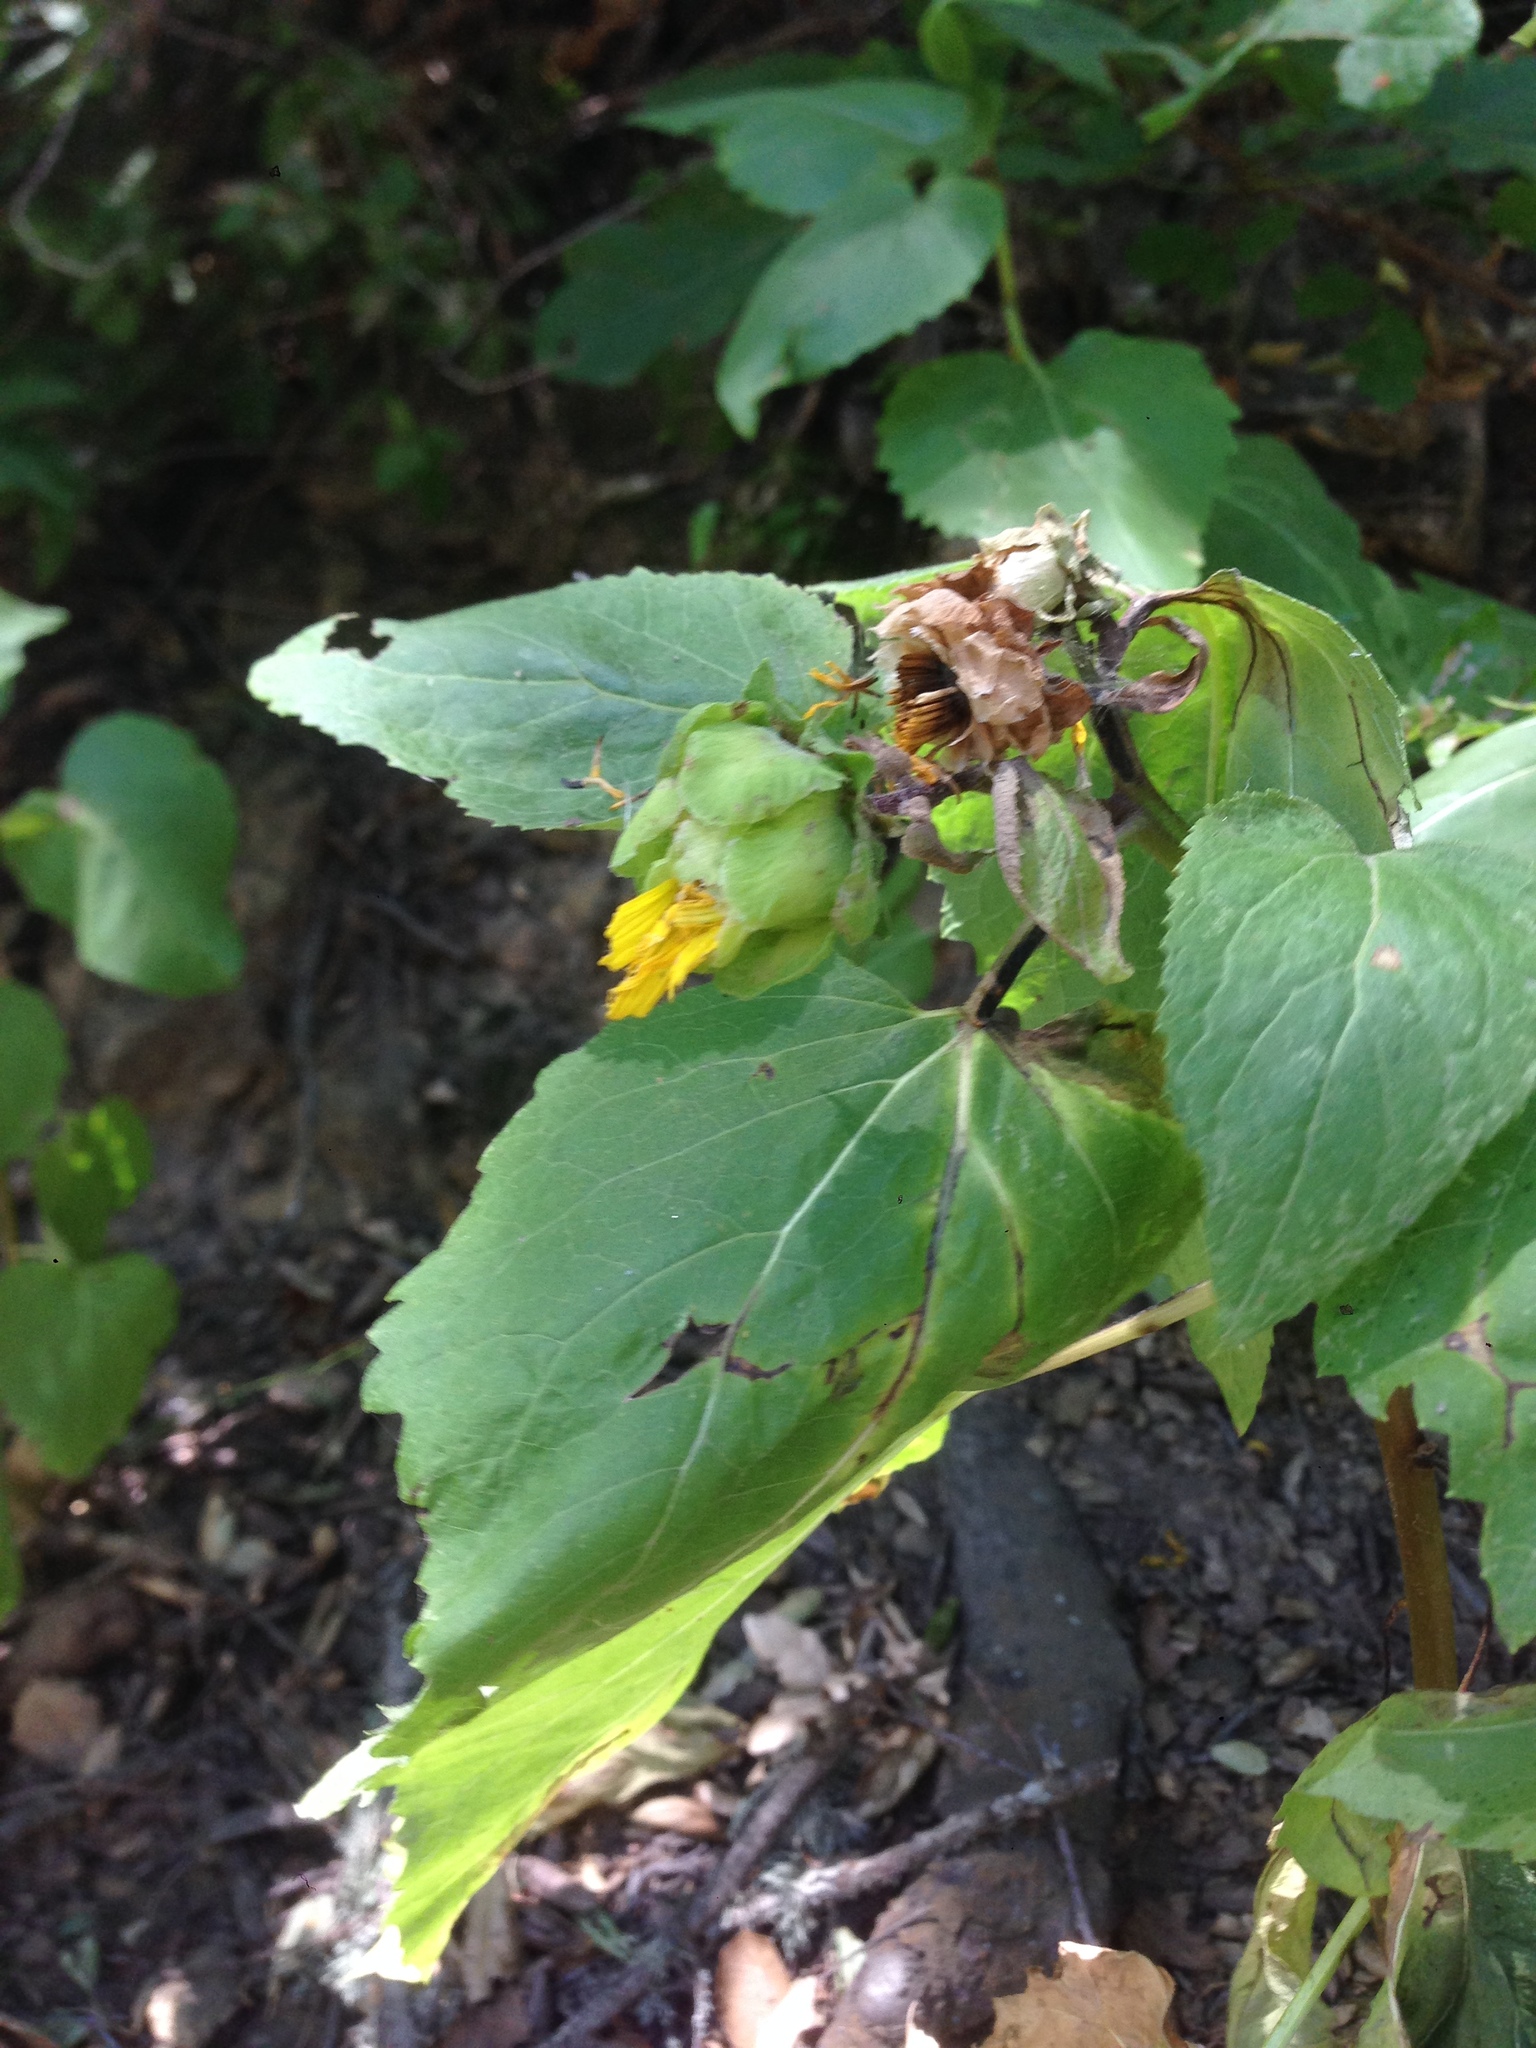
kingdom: Plantae
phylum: Tracheophyta
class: Magnoliopsida
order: Asterales
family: Asteraceae
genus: Venegasia
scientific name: Venegasia carpesioides
